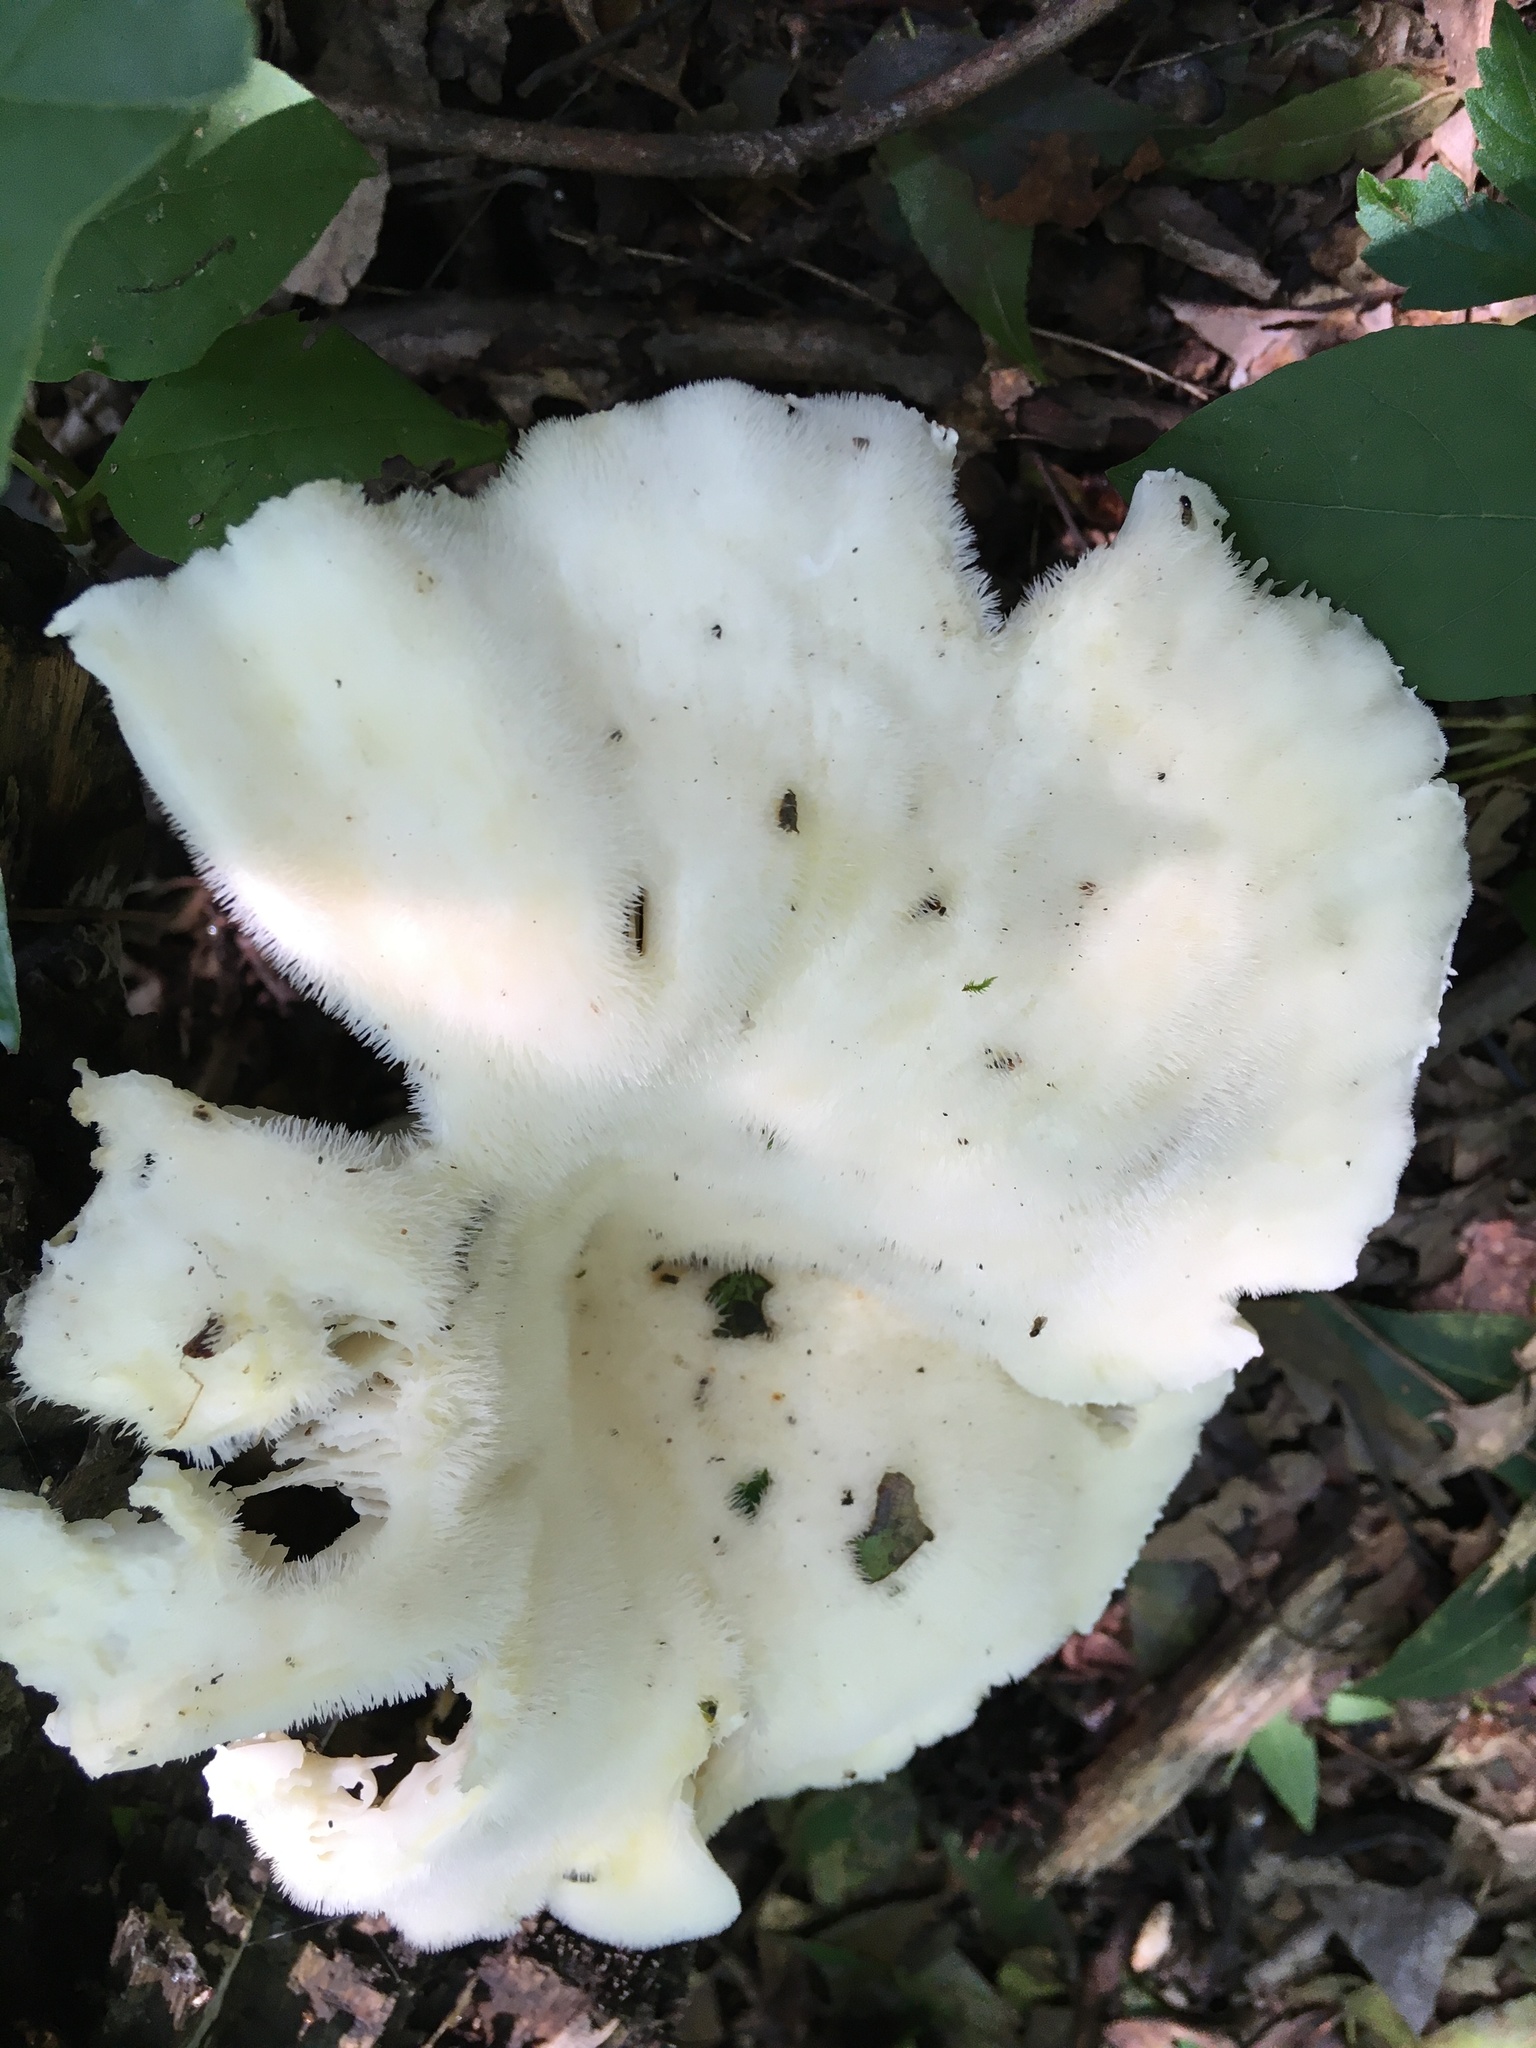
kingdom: Fungi
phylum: Basidiomycota
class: Agaricomycetes
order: Polyporales
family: Polyporaceae
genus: Lentinus
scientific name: Lentinus levis
